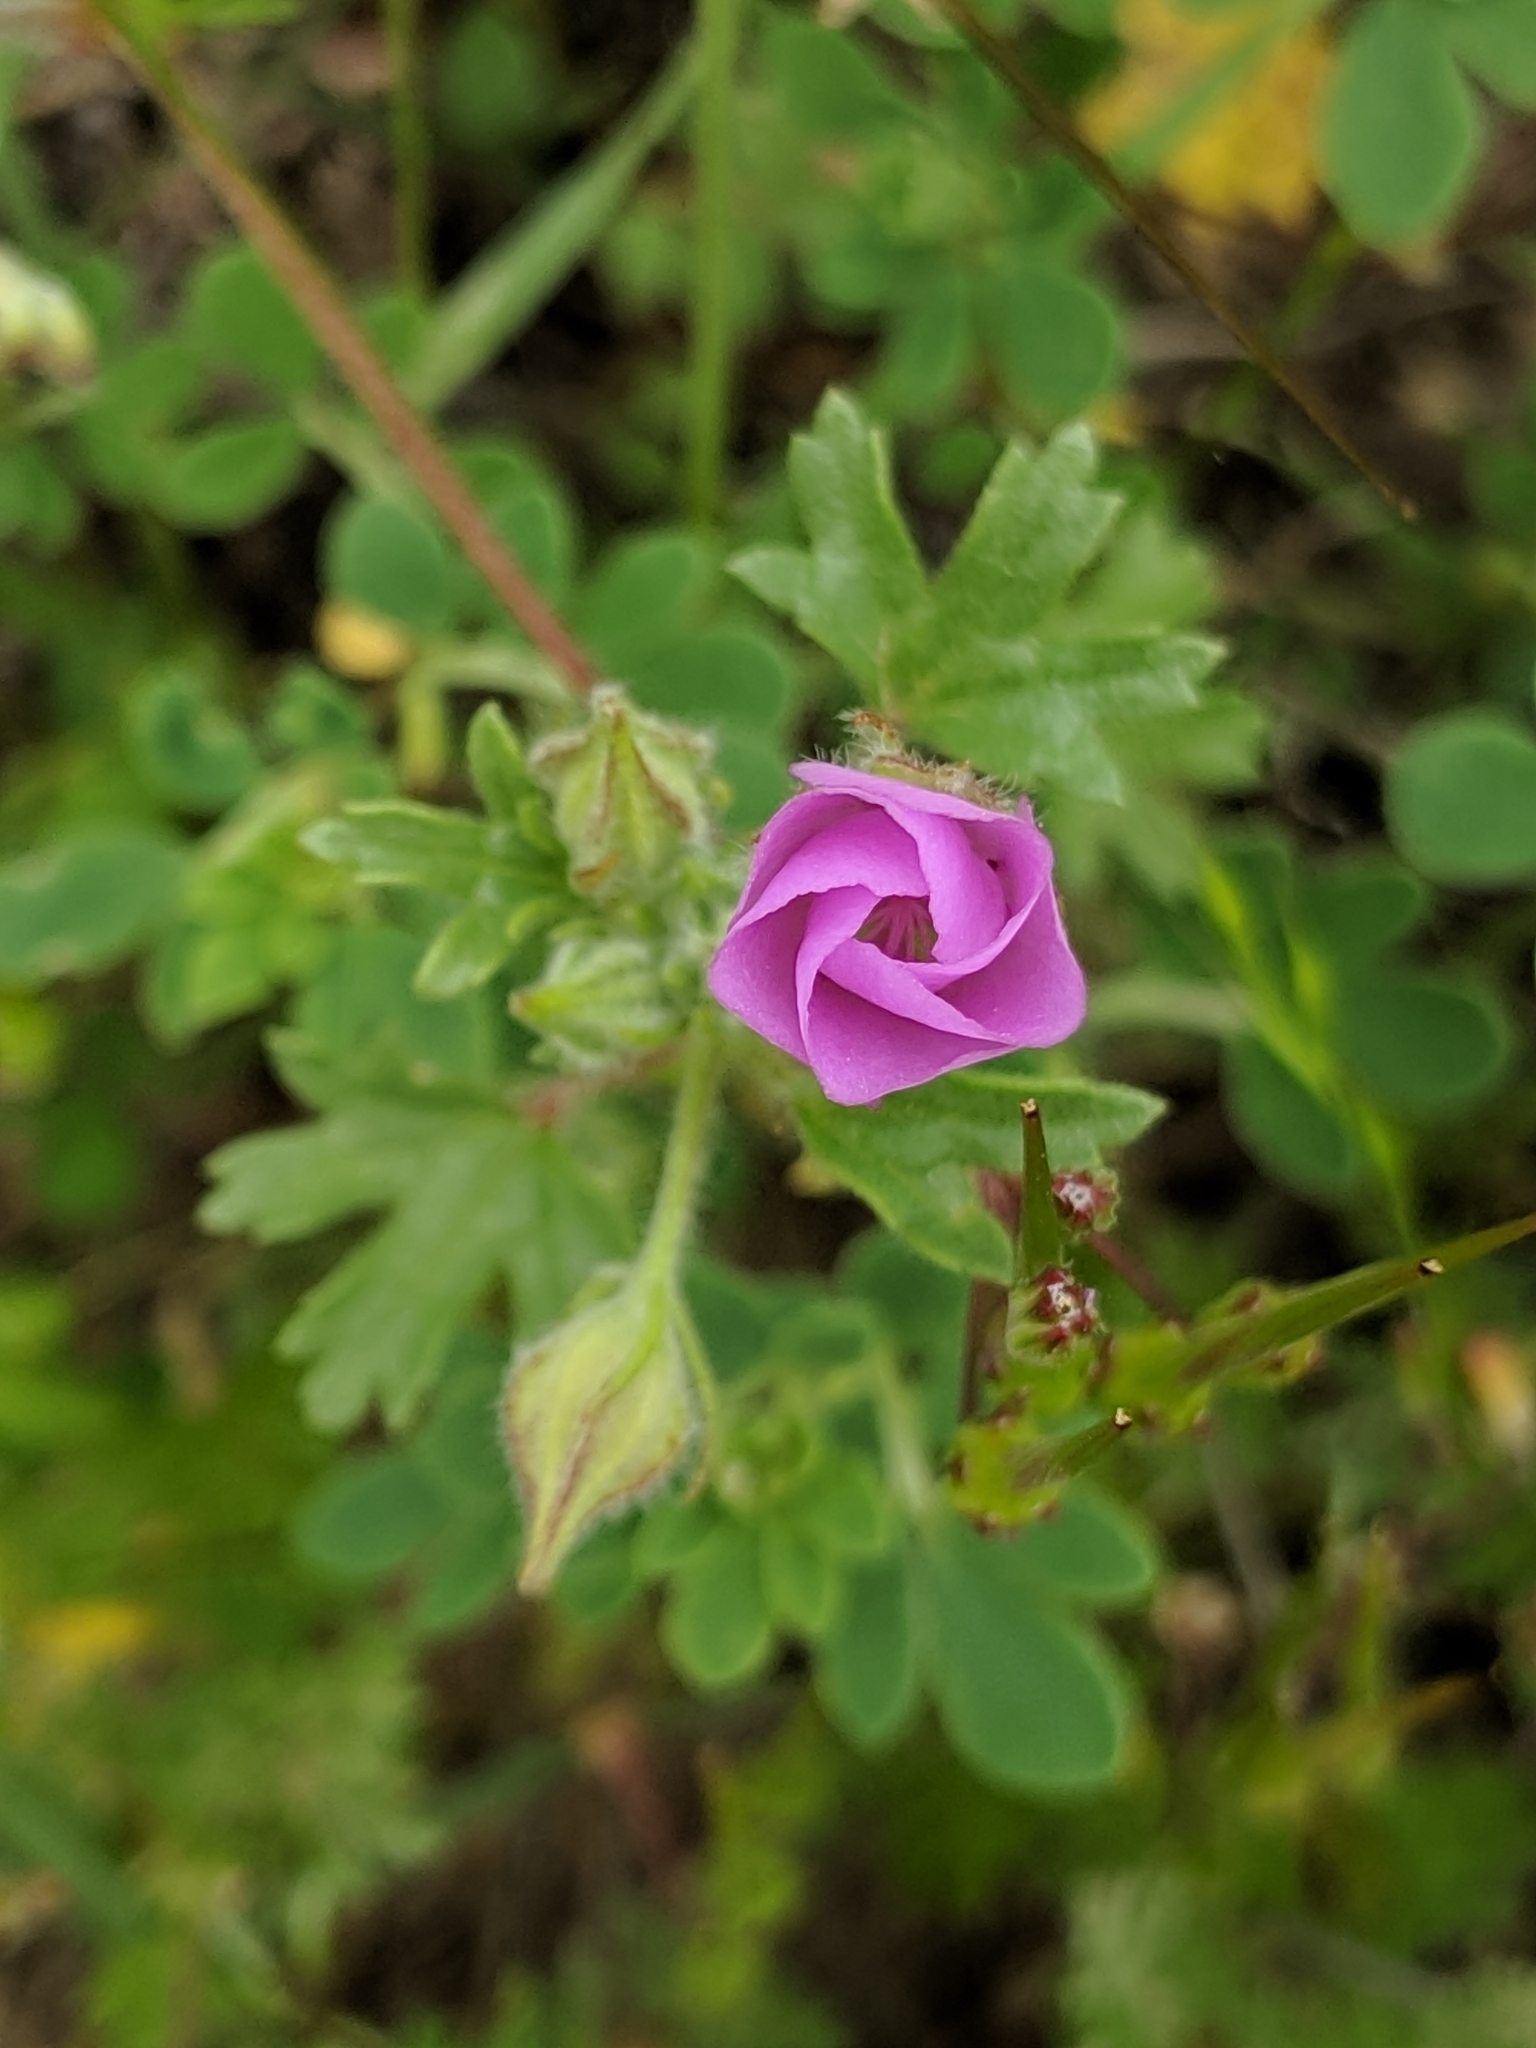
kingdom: Plantae
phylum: Tracheophyta
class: Magnoliopsida
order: Malvales
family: Malvaceae
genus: Eremalche
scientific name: Eremalche parryi
